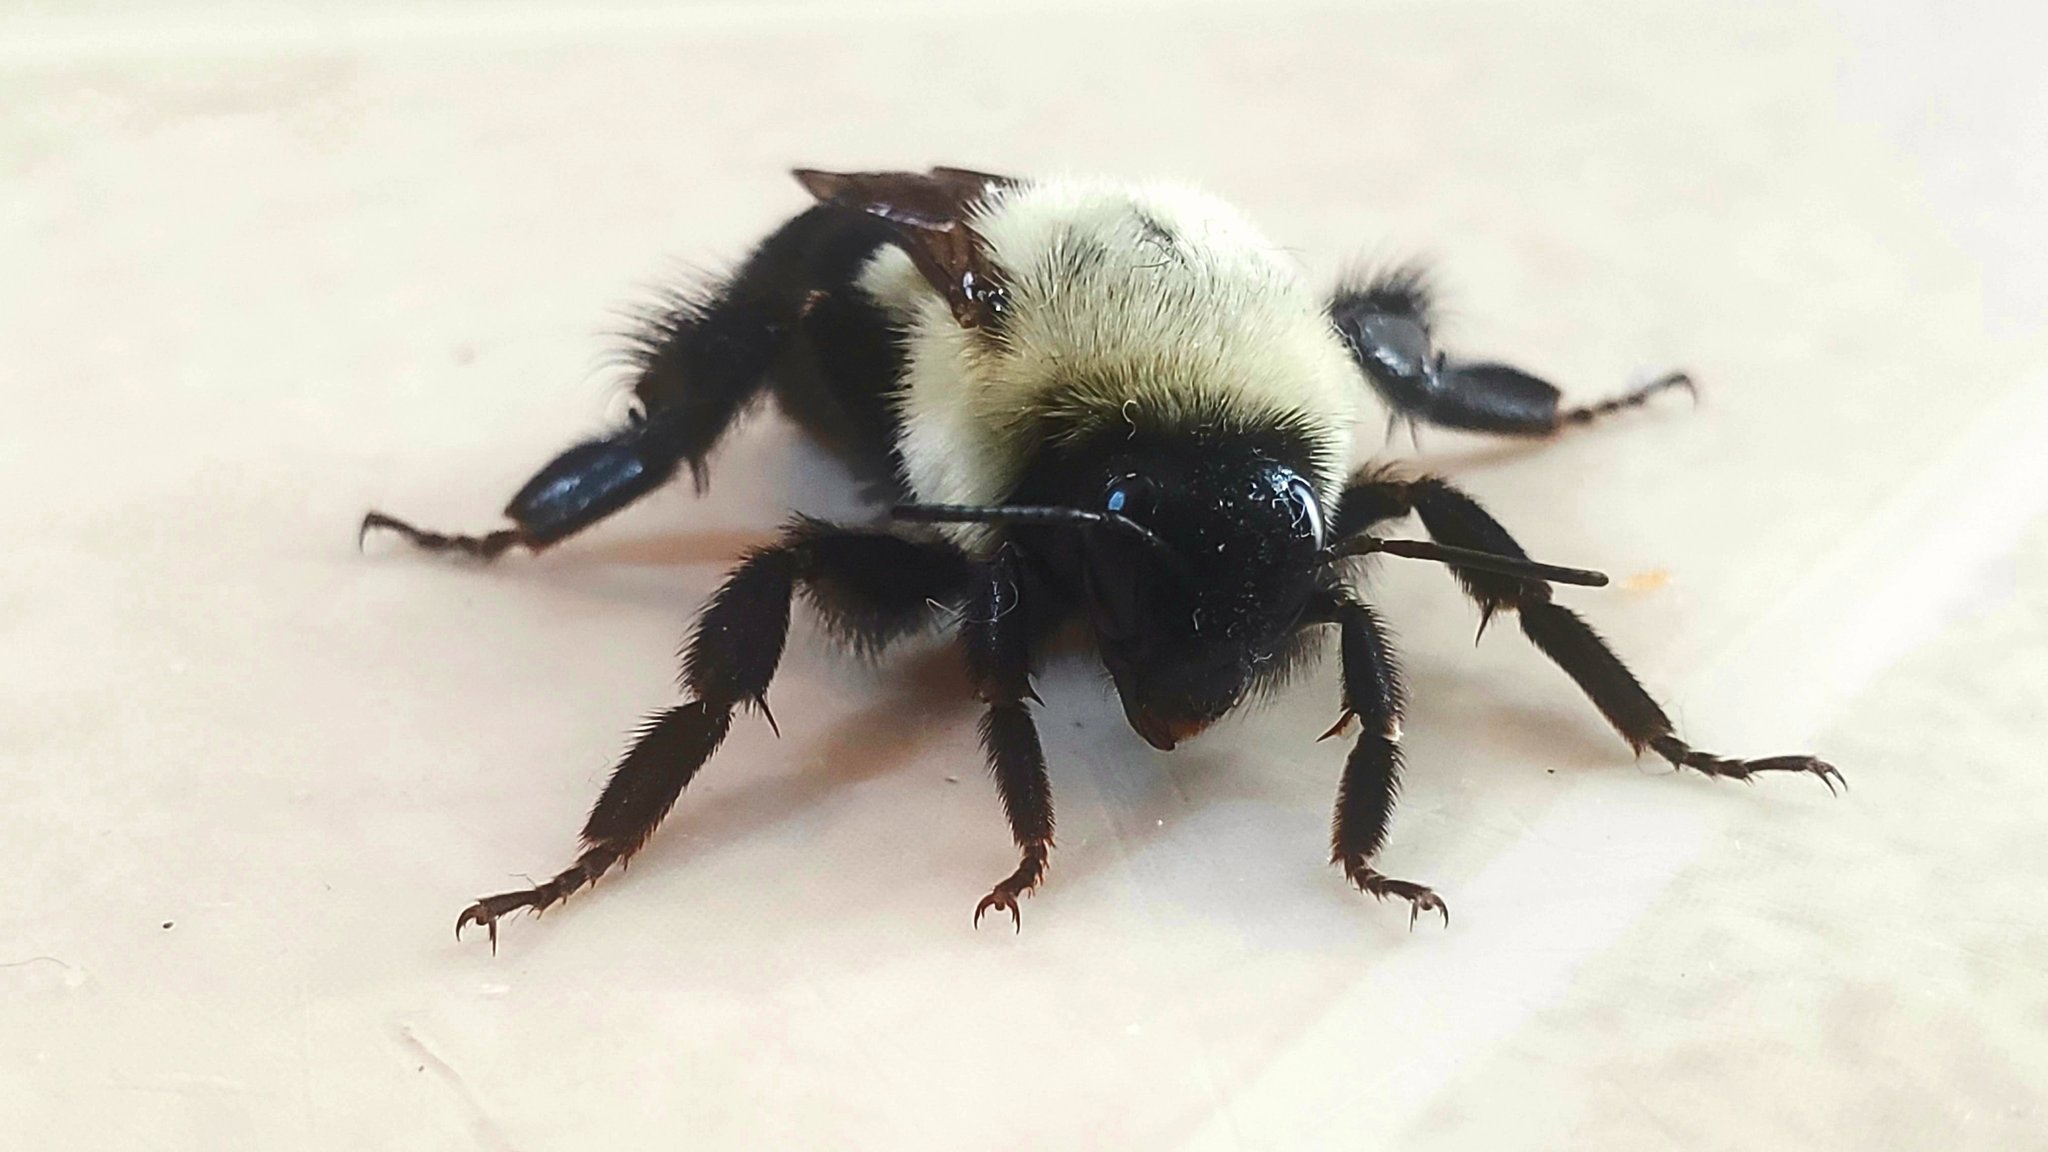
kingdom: Animalia
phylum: Arthropoda
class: Insecta
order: Hymenoptera
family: Apidae
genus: Bombus
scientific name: Bombus impatiens
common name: Common eastern bumble bee
